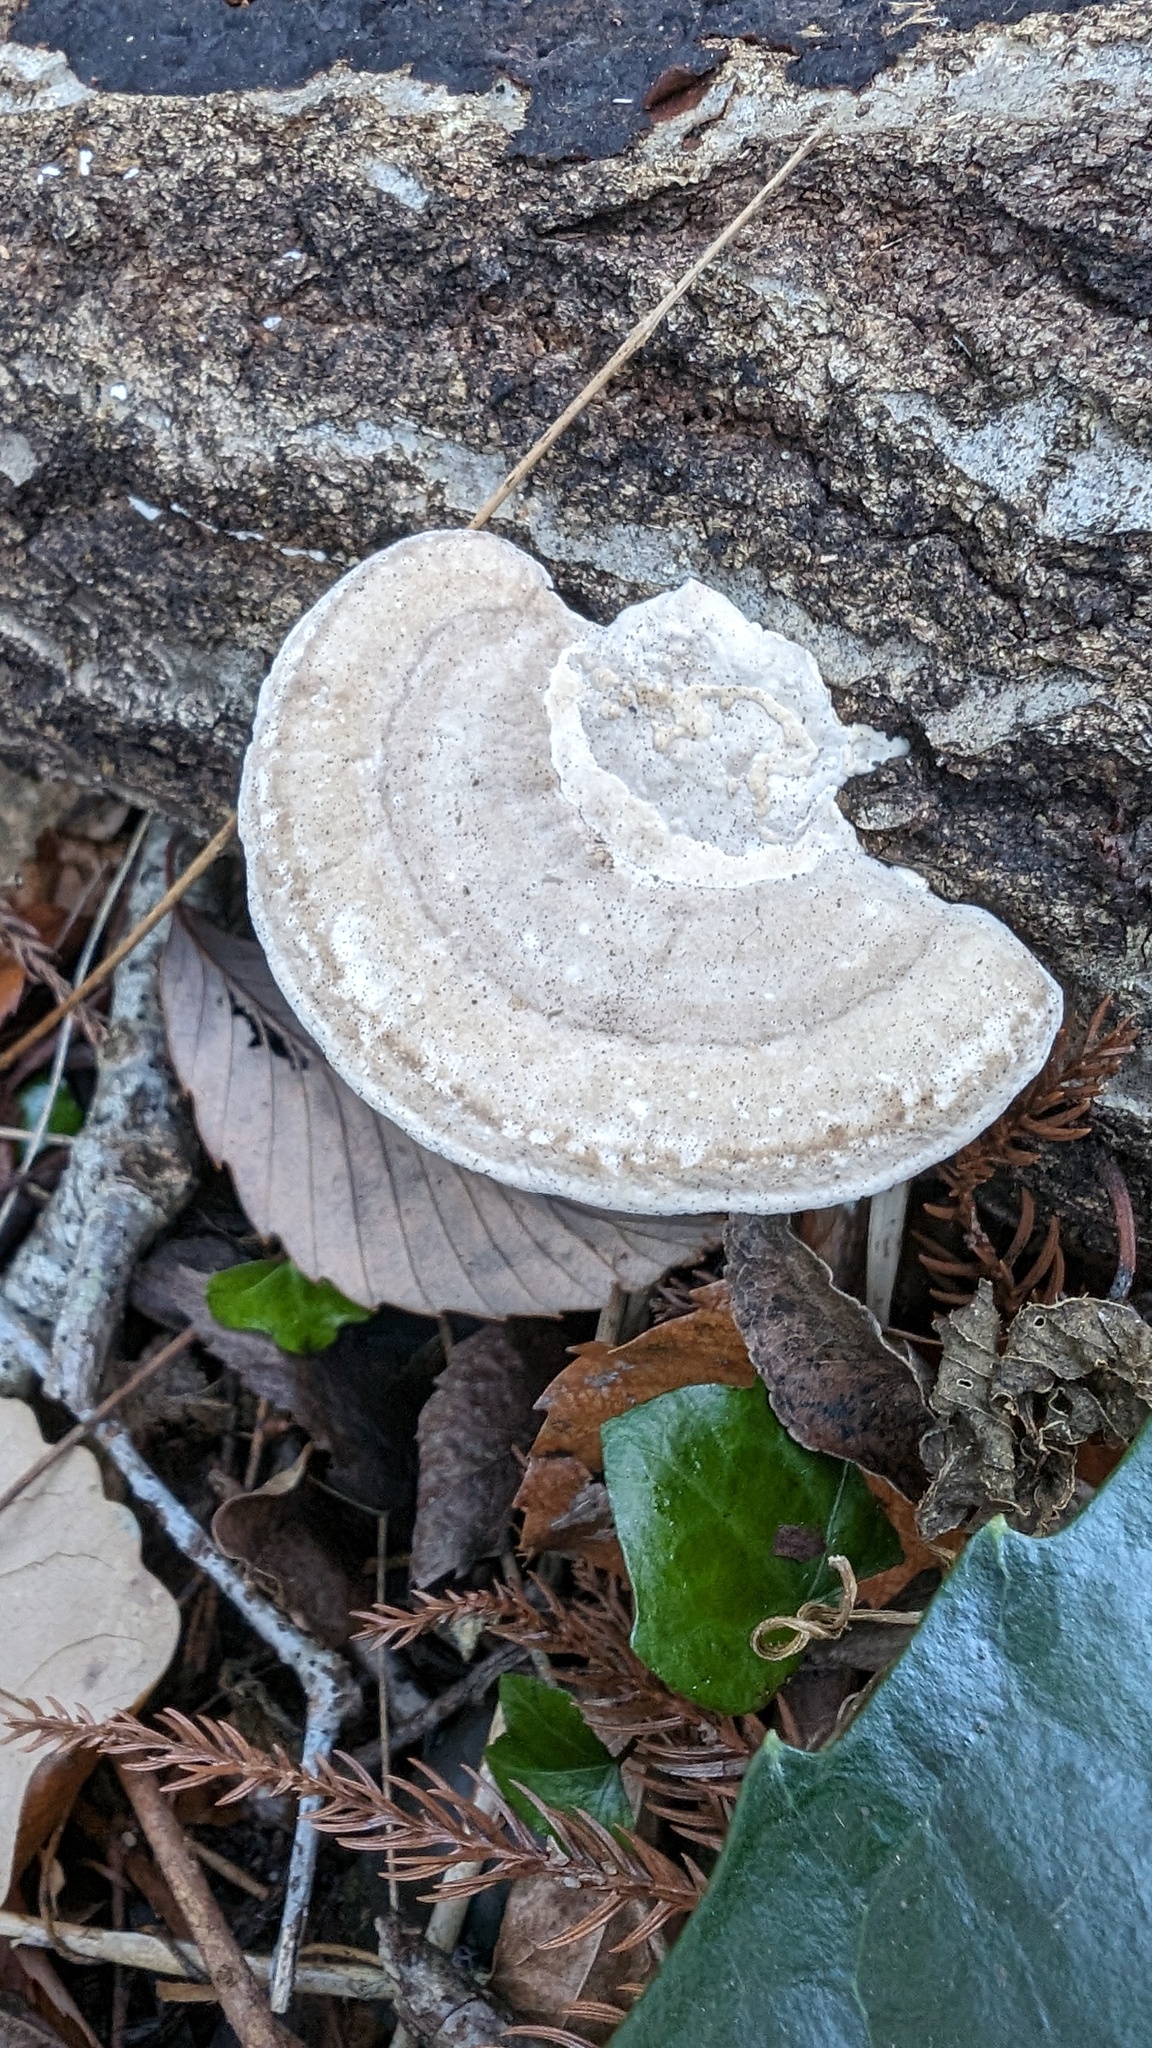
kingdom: Fungi
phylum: Basidiomycota
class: Agaricomycetes
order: Polyporales
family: Polyporaceae
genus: Trametes
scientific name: Trametes orientalis
